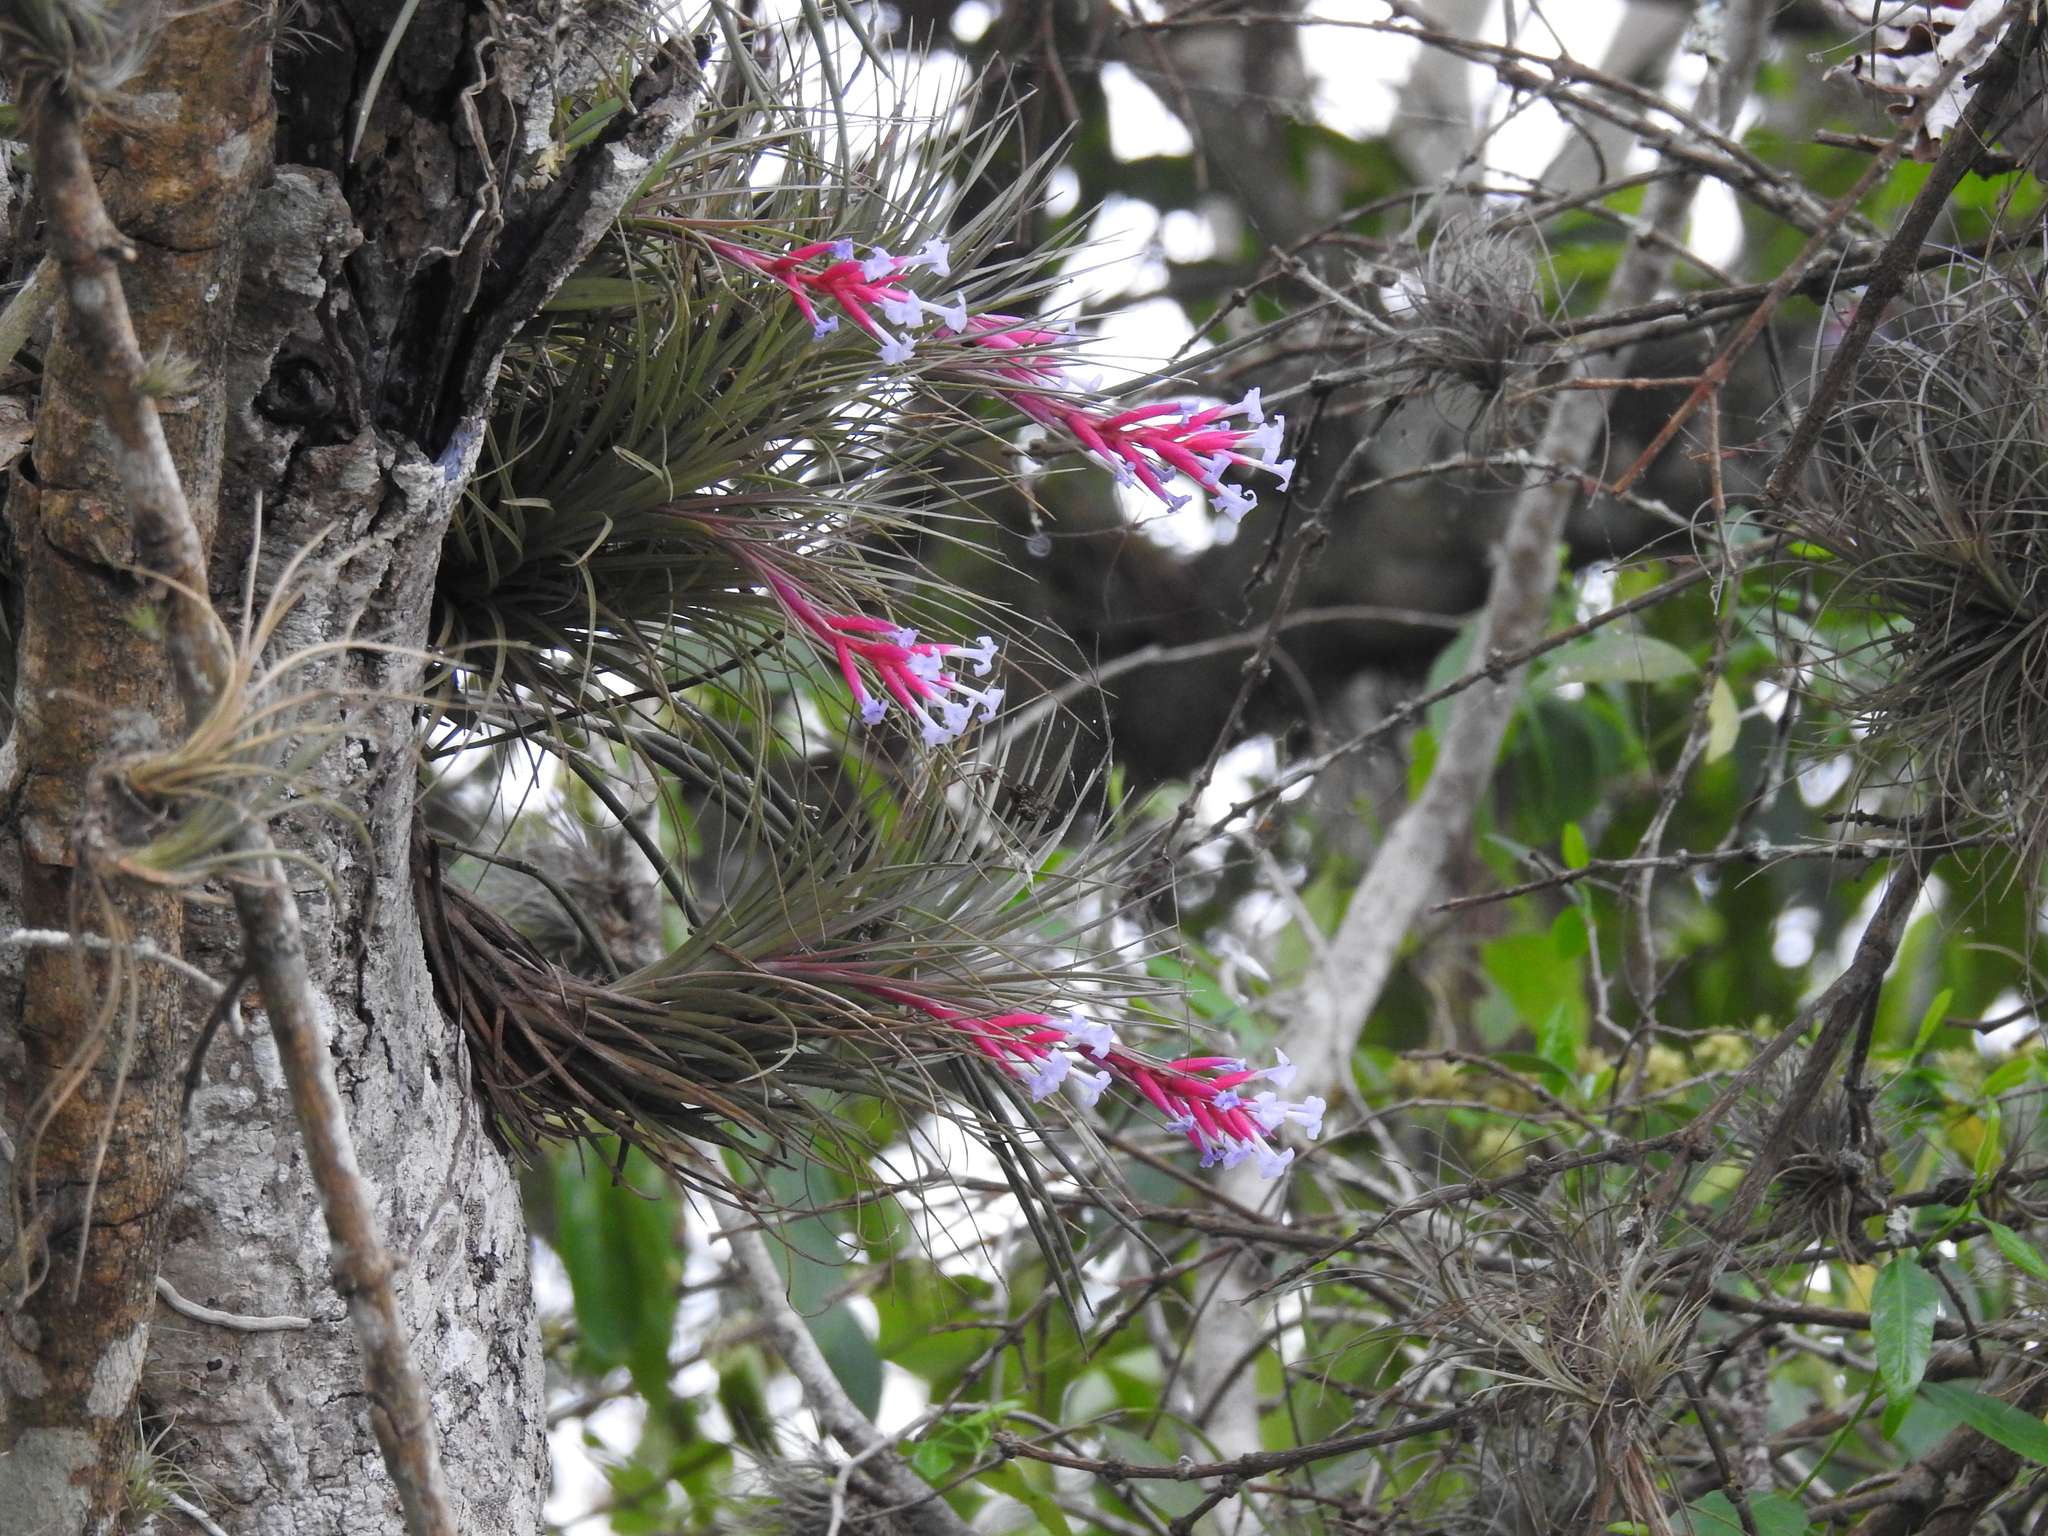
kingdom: Plantae
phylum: Tracheophyta
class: Liliopsida
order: Poales
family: Bromeliaceae
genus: Tillandsia
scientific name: Tillandsia tenuifolia
